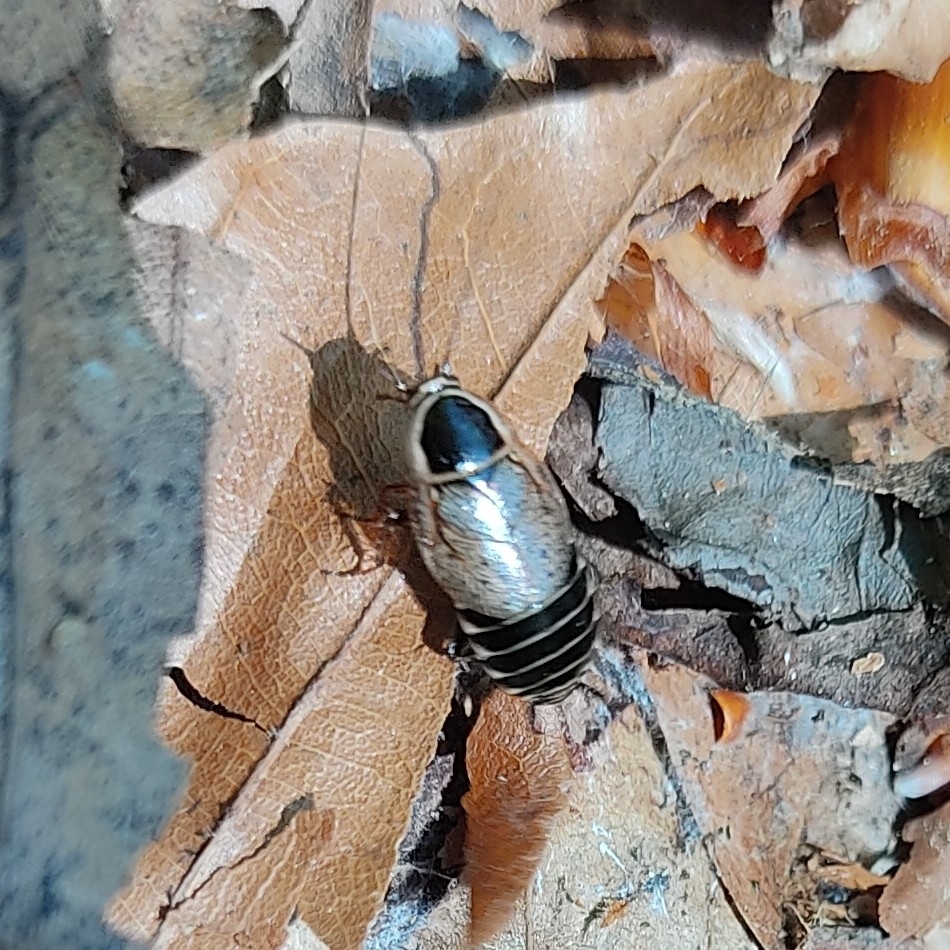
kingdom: Animalia
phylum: Arthropoda
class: Insecta
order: Blattodea
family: Ectobiidae
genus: Ectobius
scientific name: Ectobius sylvestris
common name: Forest cockroach
